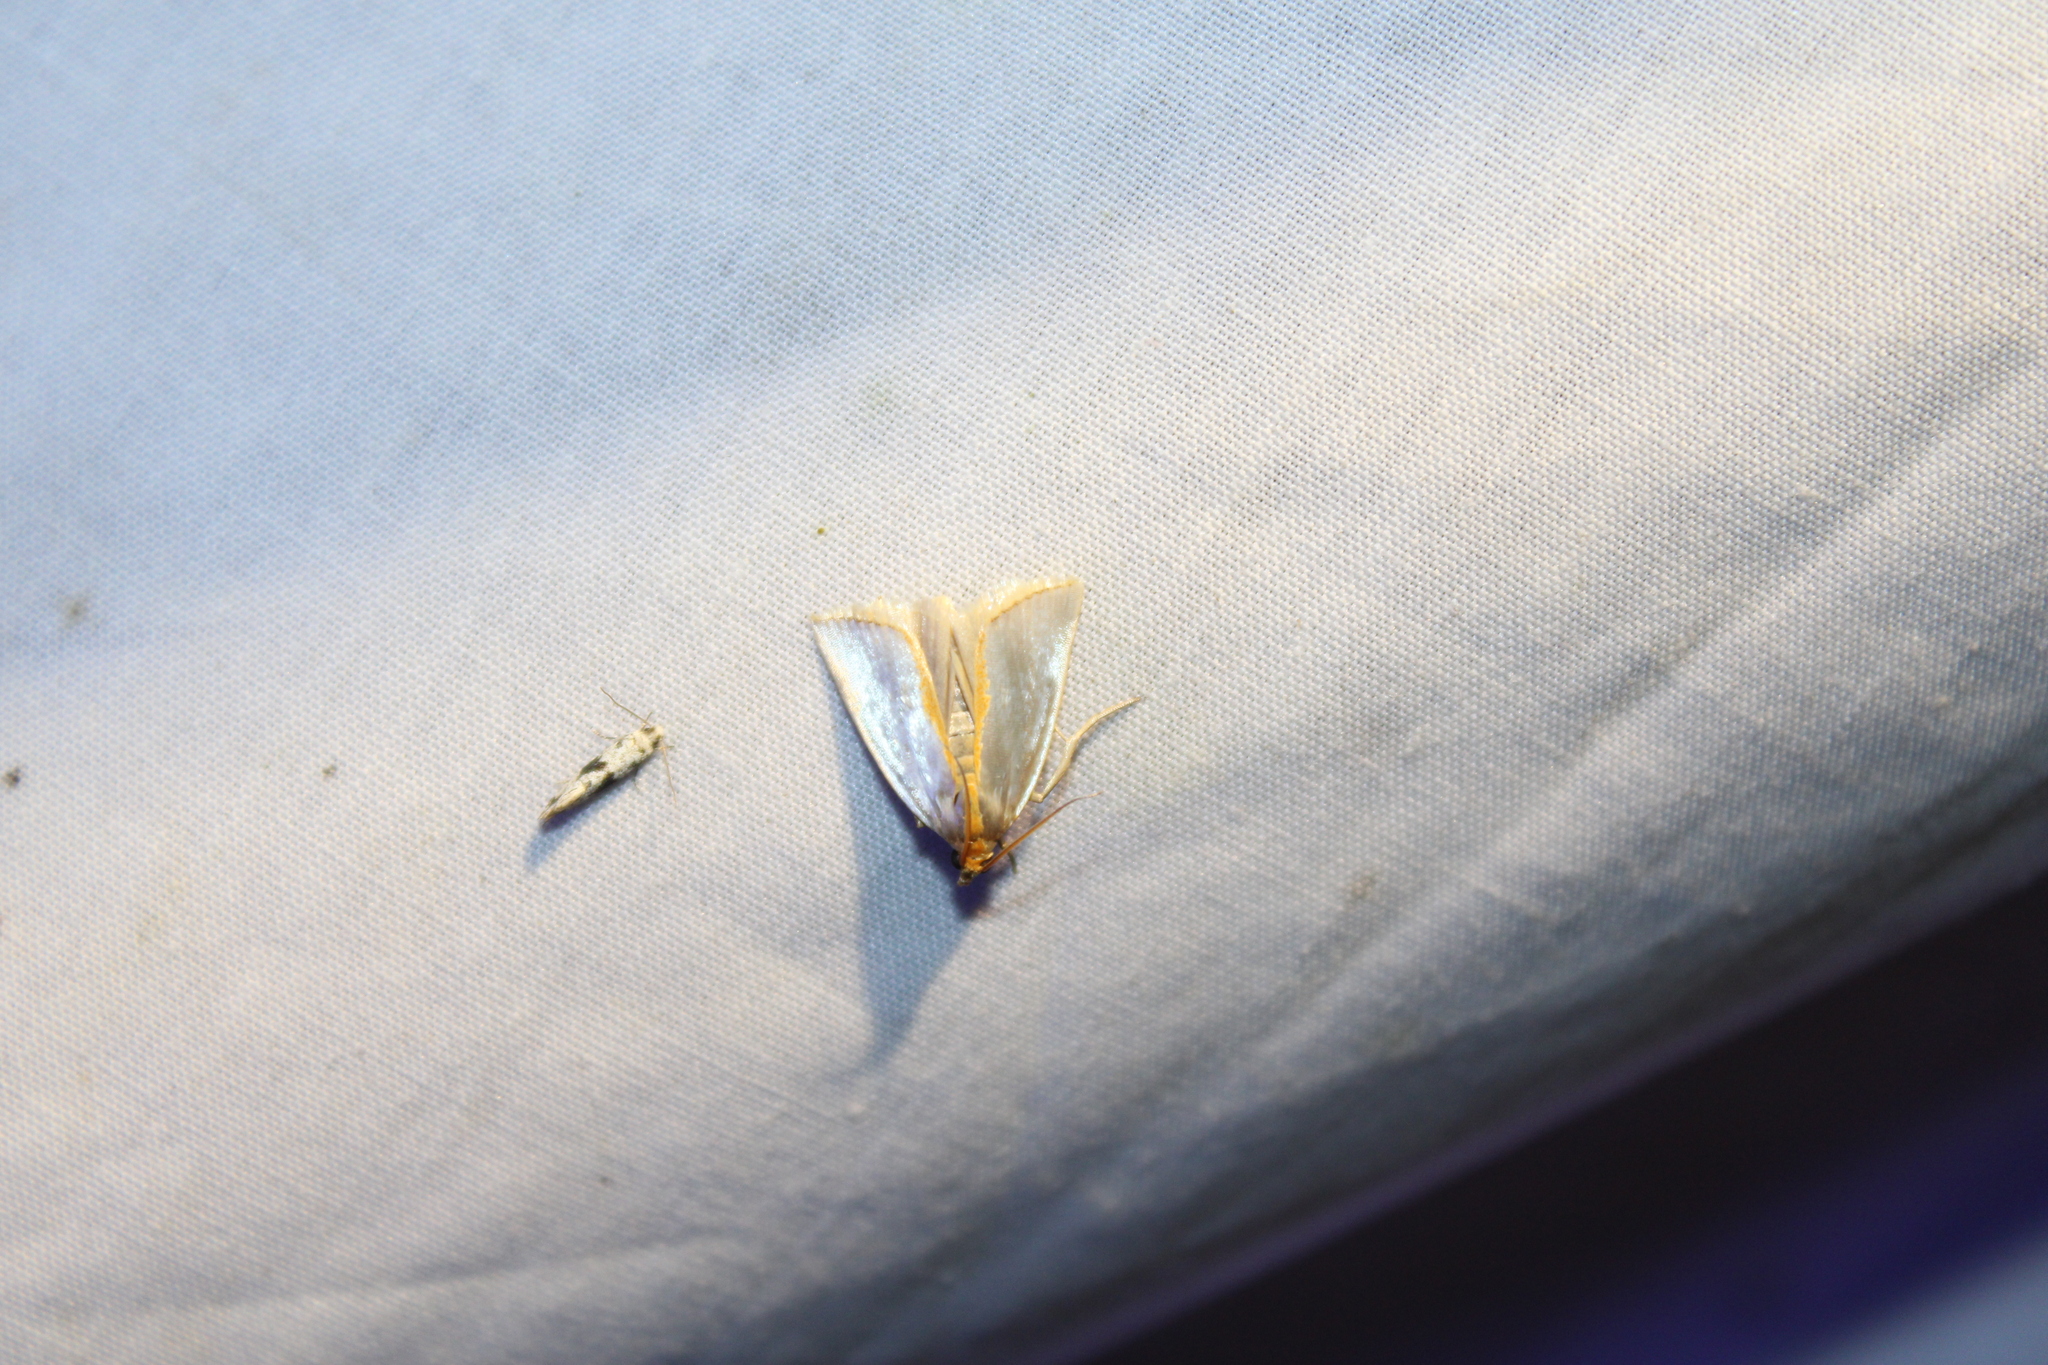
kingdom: Animalia
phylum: Arthropoda
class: Insecta
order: Lepidoptera
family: Crambidae
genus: Argyria
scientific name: Argyria
